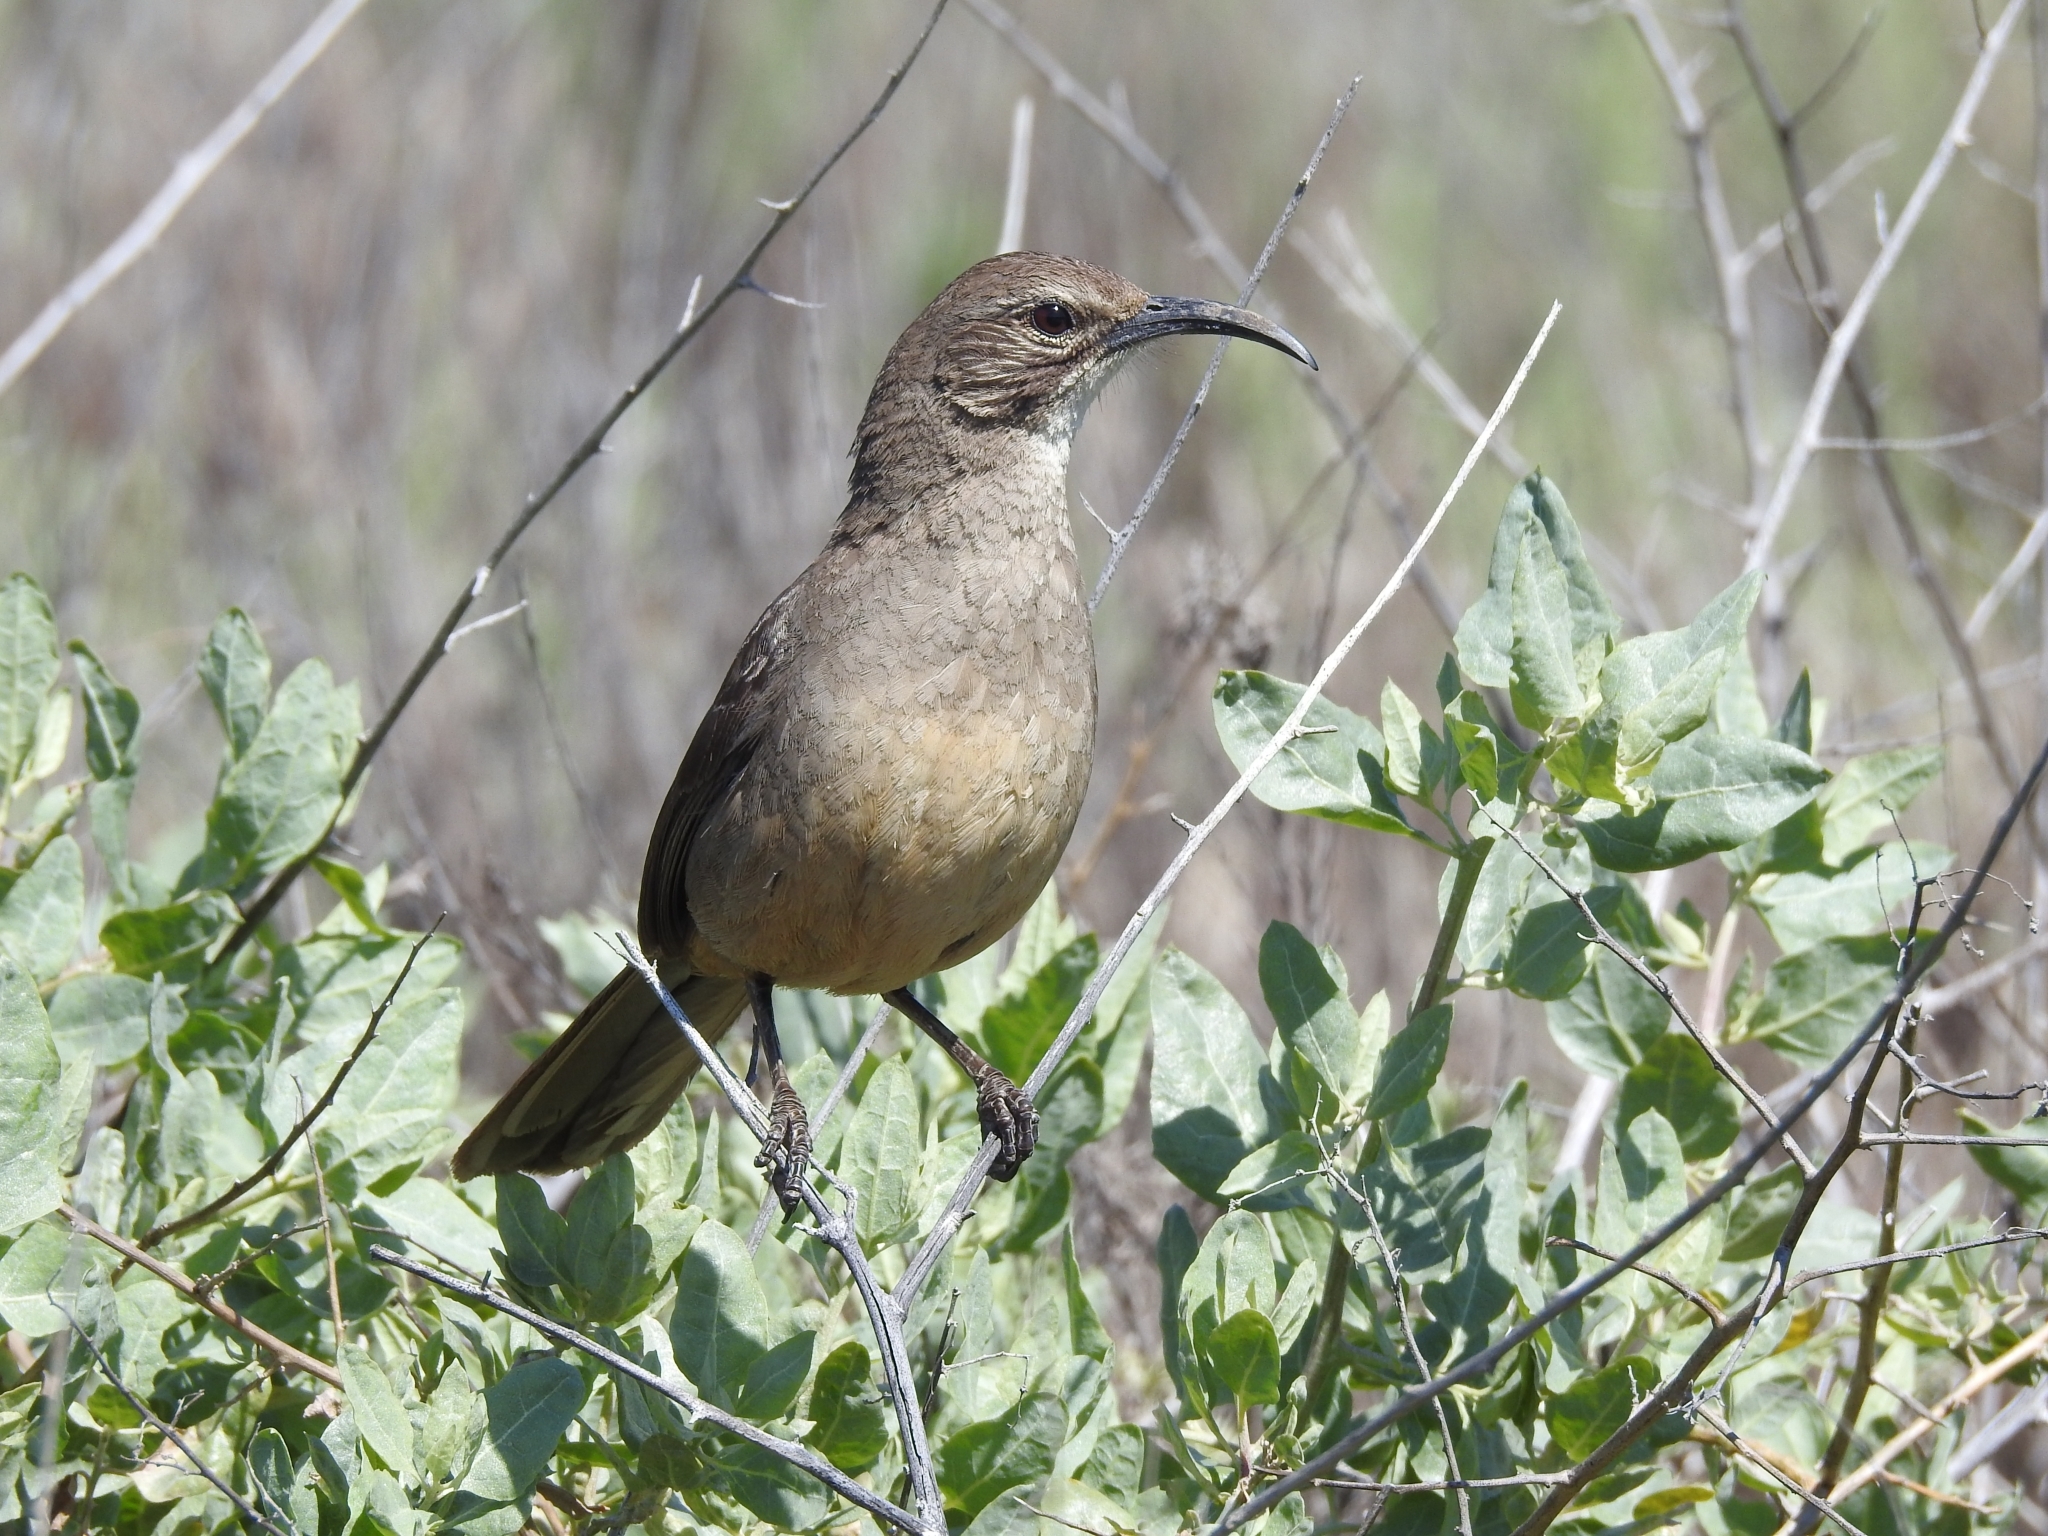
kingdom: Animalia
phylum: Chordata
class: Aves
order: Passeriformes
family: Mimidae
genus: Toxostoma
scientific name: Toxostoma redivivum
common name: California thrasher
